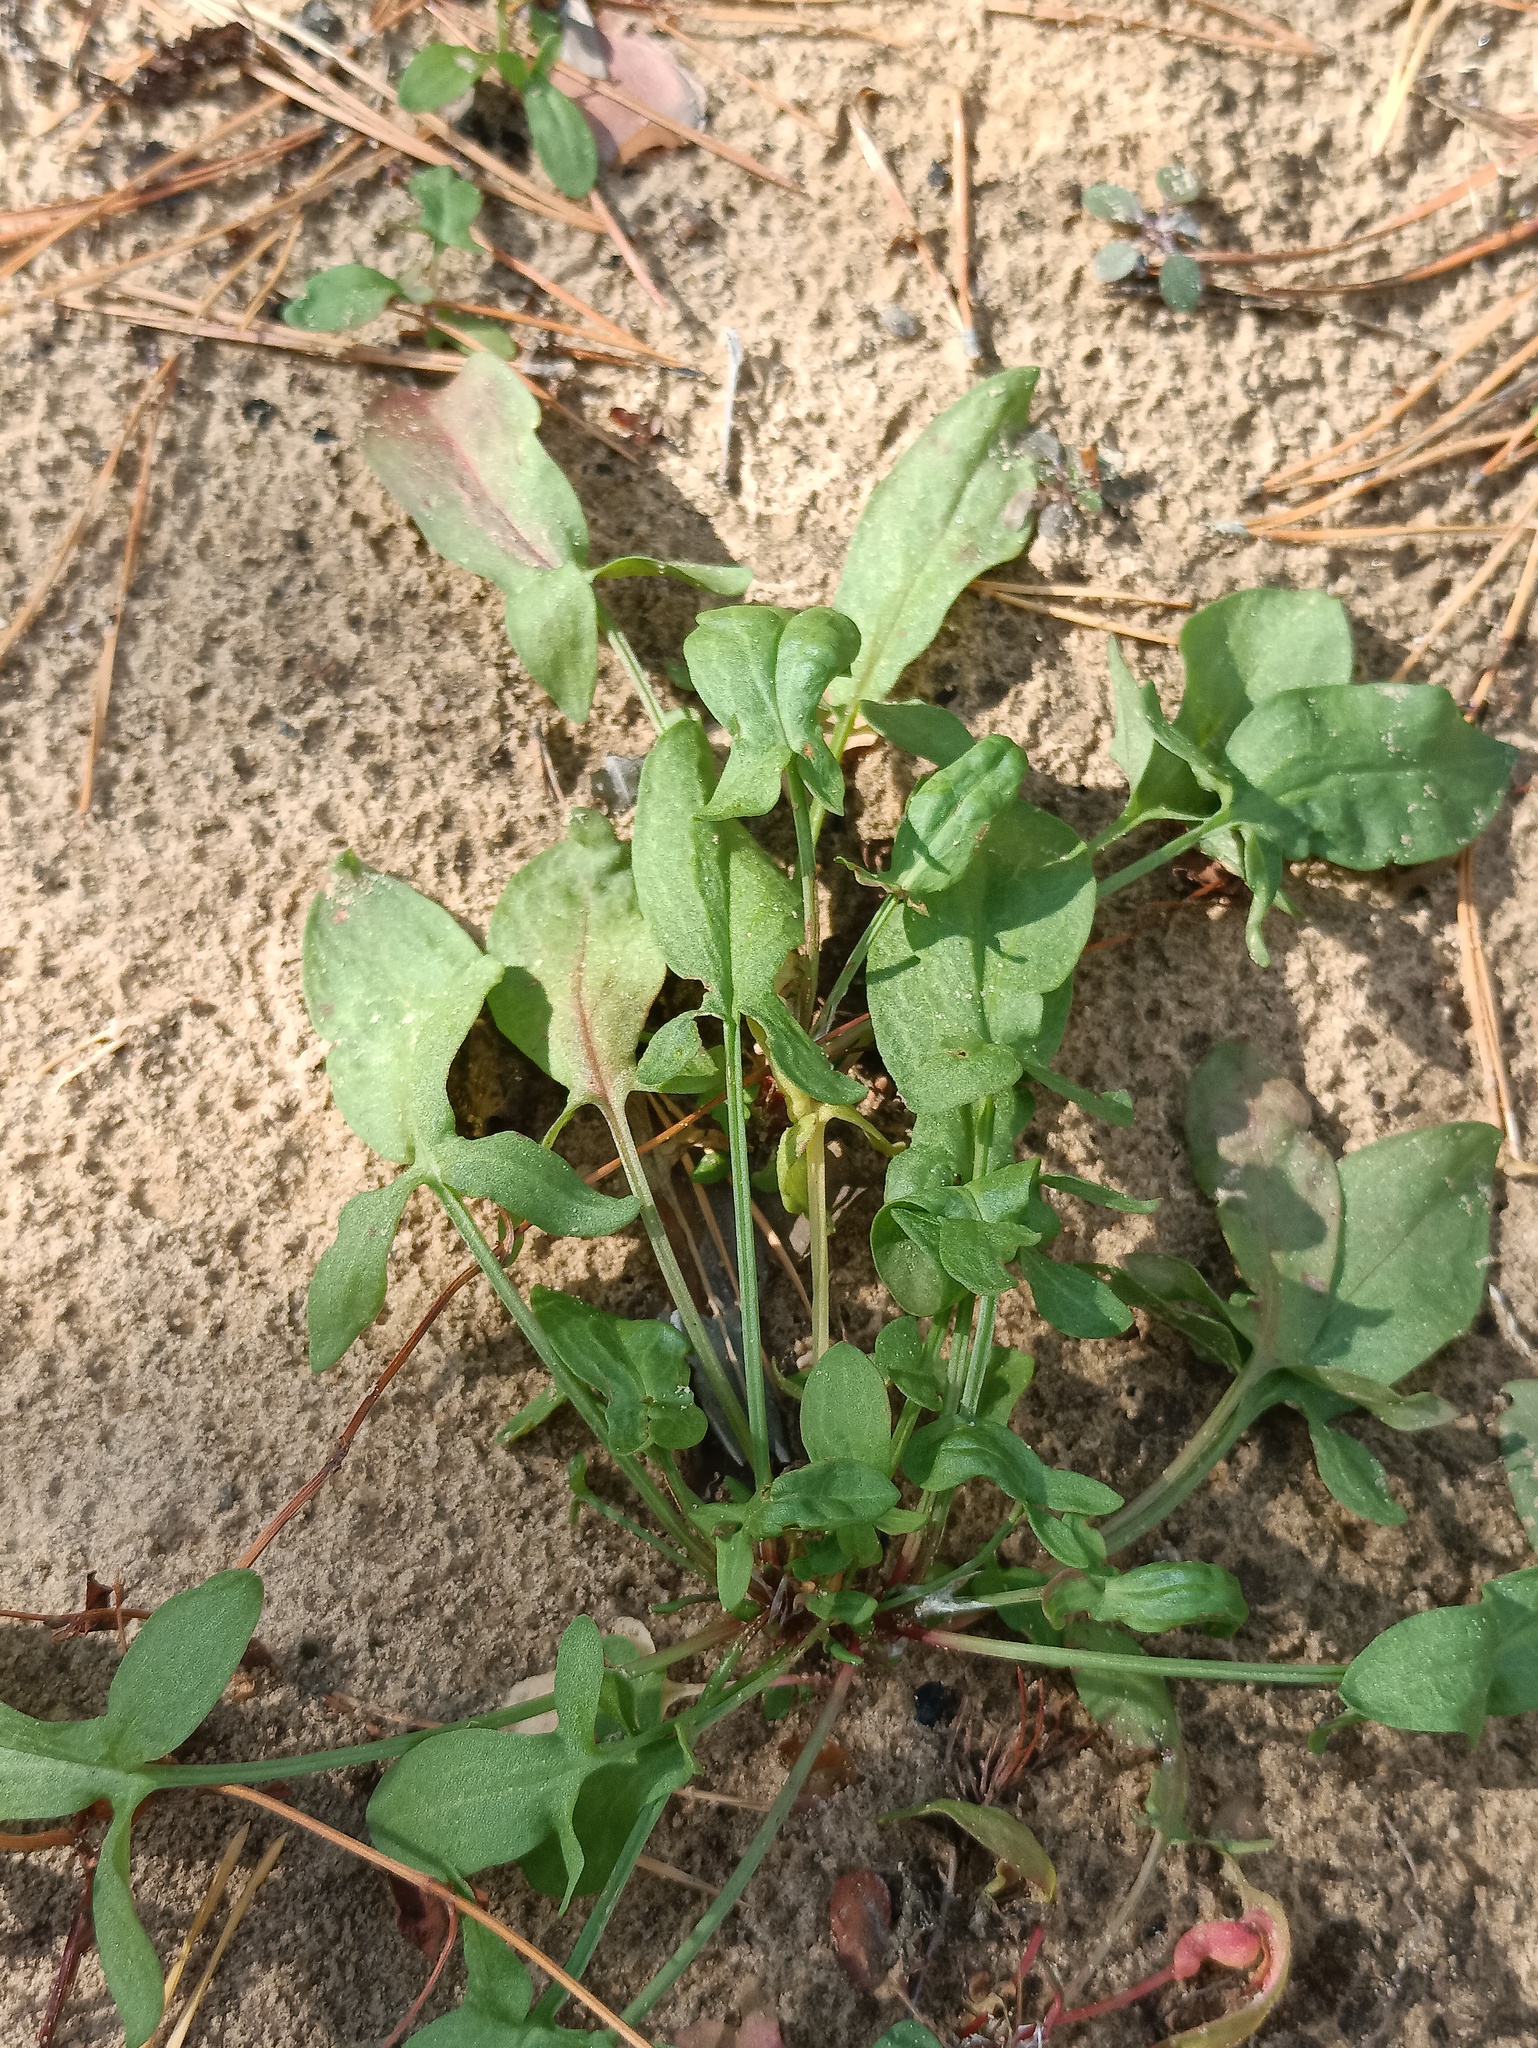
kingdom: Plantae
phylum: Tracheophyta
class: Magnoliopsida
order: Caryophyllales
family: Polygonaceae
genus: Rumex
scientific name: Rumex acetosella
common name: Common sheep sorrel
